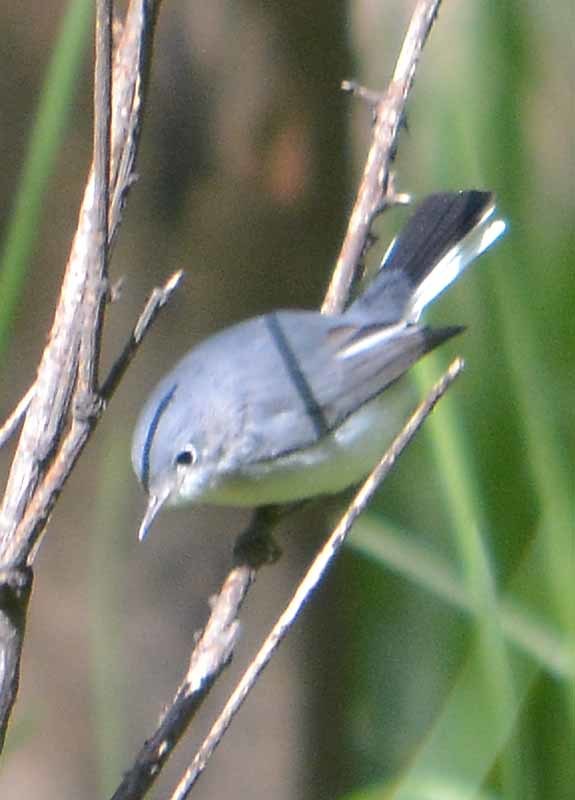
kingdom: Animalia
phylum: Chordata
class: Aves
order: Passeriformes
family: Polioptilidae
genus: Polioptila
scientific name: Polioptila caerulea
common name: Blue-gray gnatcatcher
